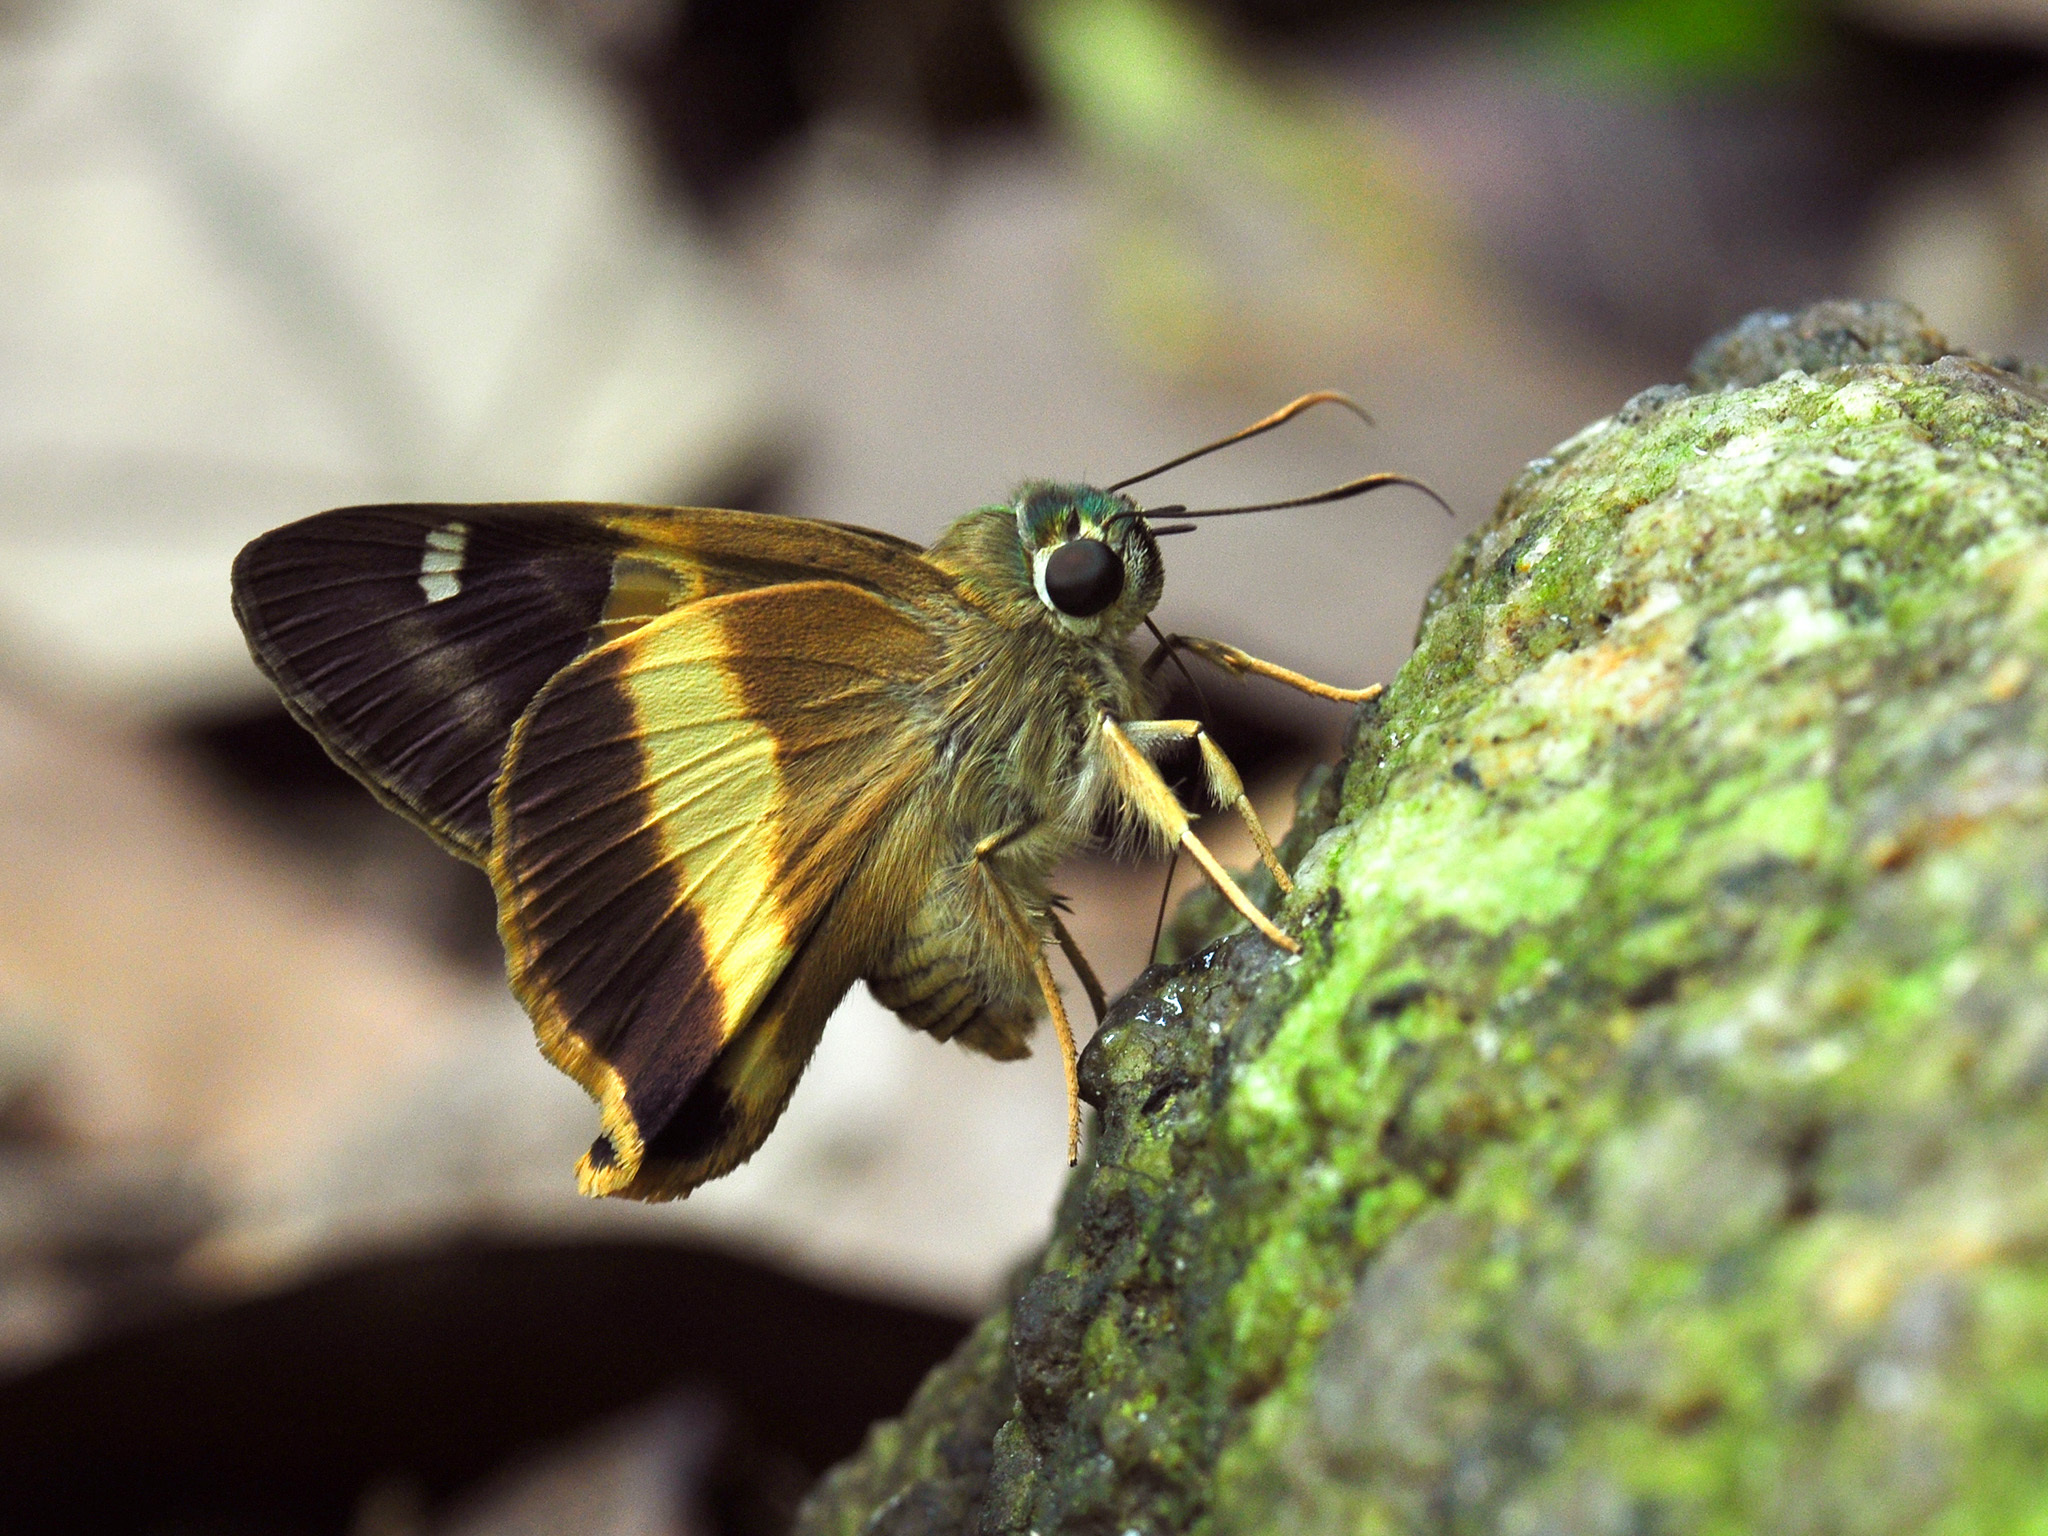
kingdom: Animalia
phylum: Arthropoda
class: Insecta
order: Lepidoptera
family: Hesperiidae
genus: Hasora
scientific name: Hasora schoenherr
